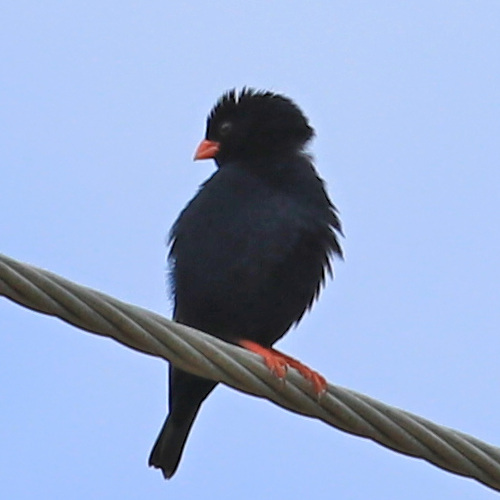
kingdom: Animalia
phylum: Chordata
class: Aves
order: Passeriformes
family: Viduidae
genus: Vidua
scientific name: Vidua chalybeata
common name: Village indigobird
